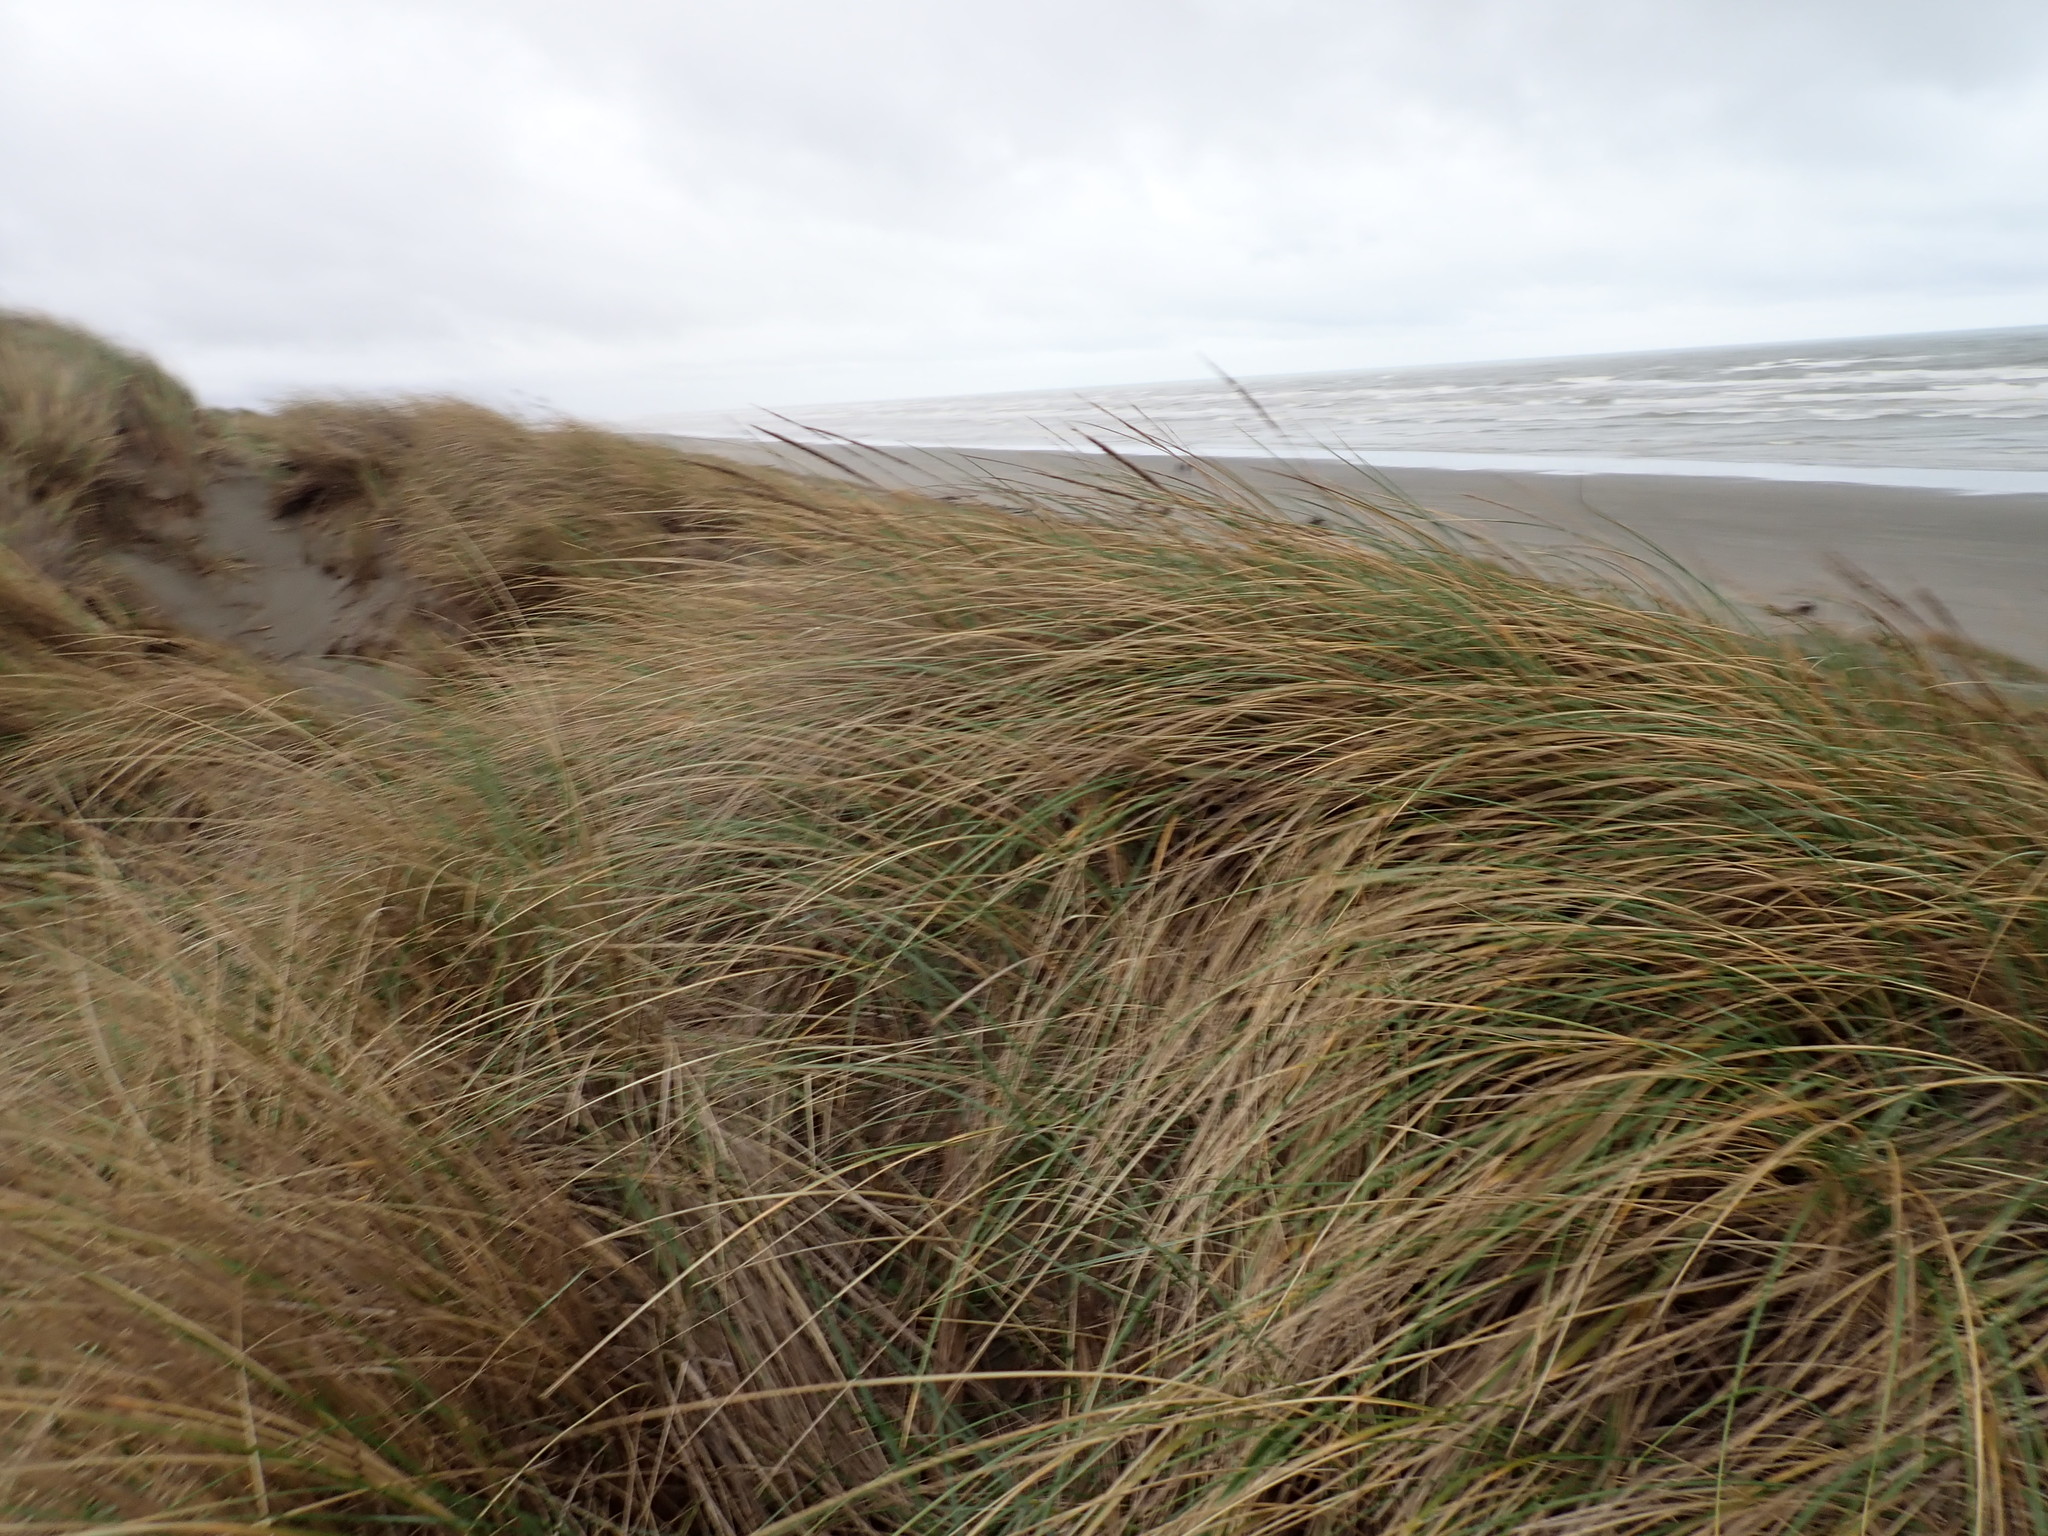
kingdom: Plantae
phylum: Tracheophyta
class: Liliopsida
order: Poales
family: Poaceae
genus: Calamagrostis
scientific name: Calamagrostis arenaria
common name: European beachgrass
